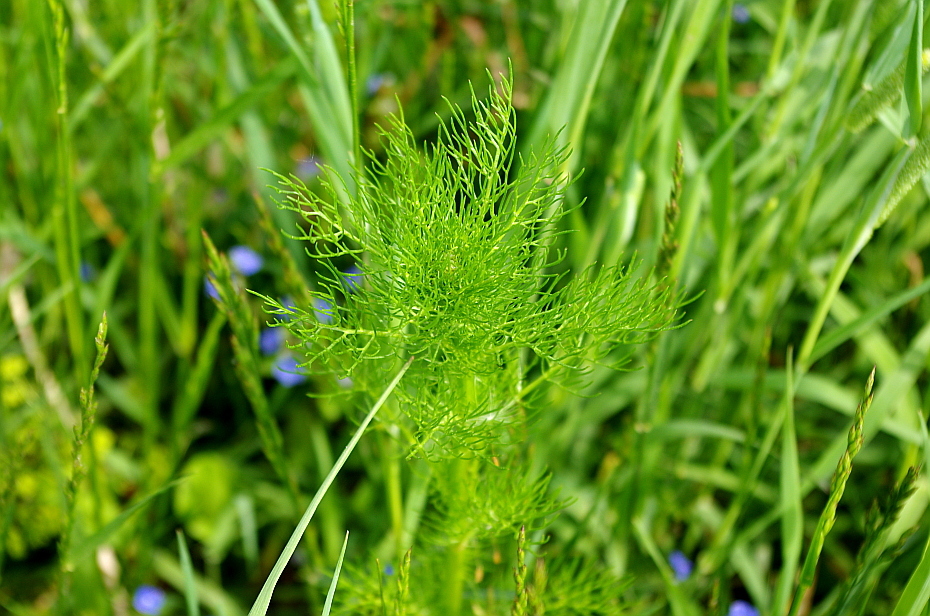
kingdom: Plantae
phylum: Tracheophyta
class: Magnoliopsida
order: Asterales
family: Asteraceae
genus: Tripleurospermum
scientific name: Tripleurospermum inodorum
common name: Scentless mayweed
